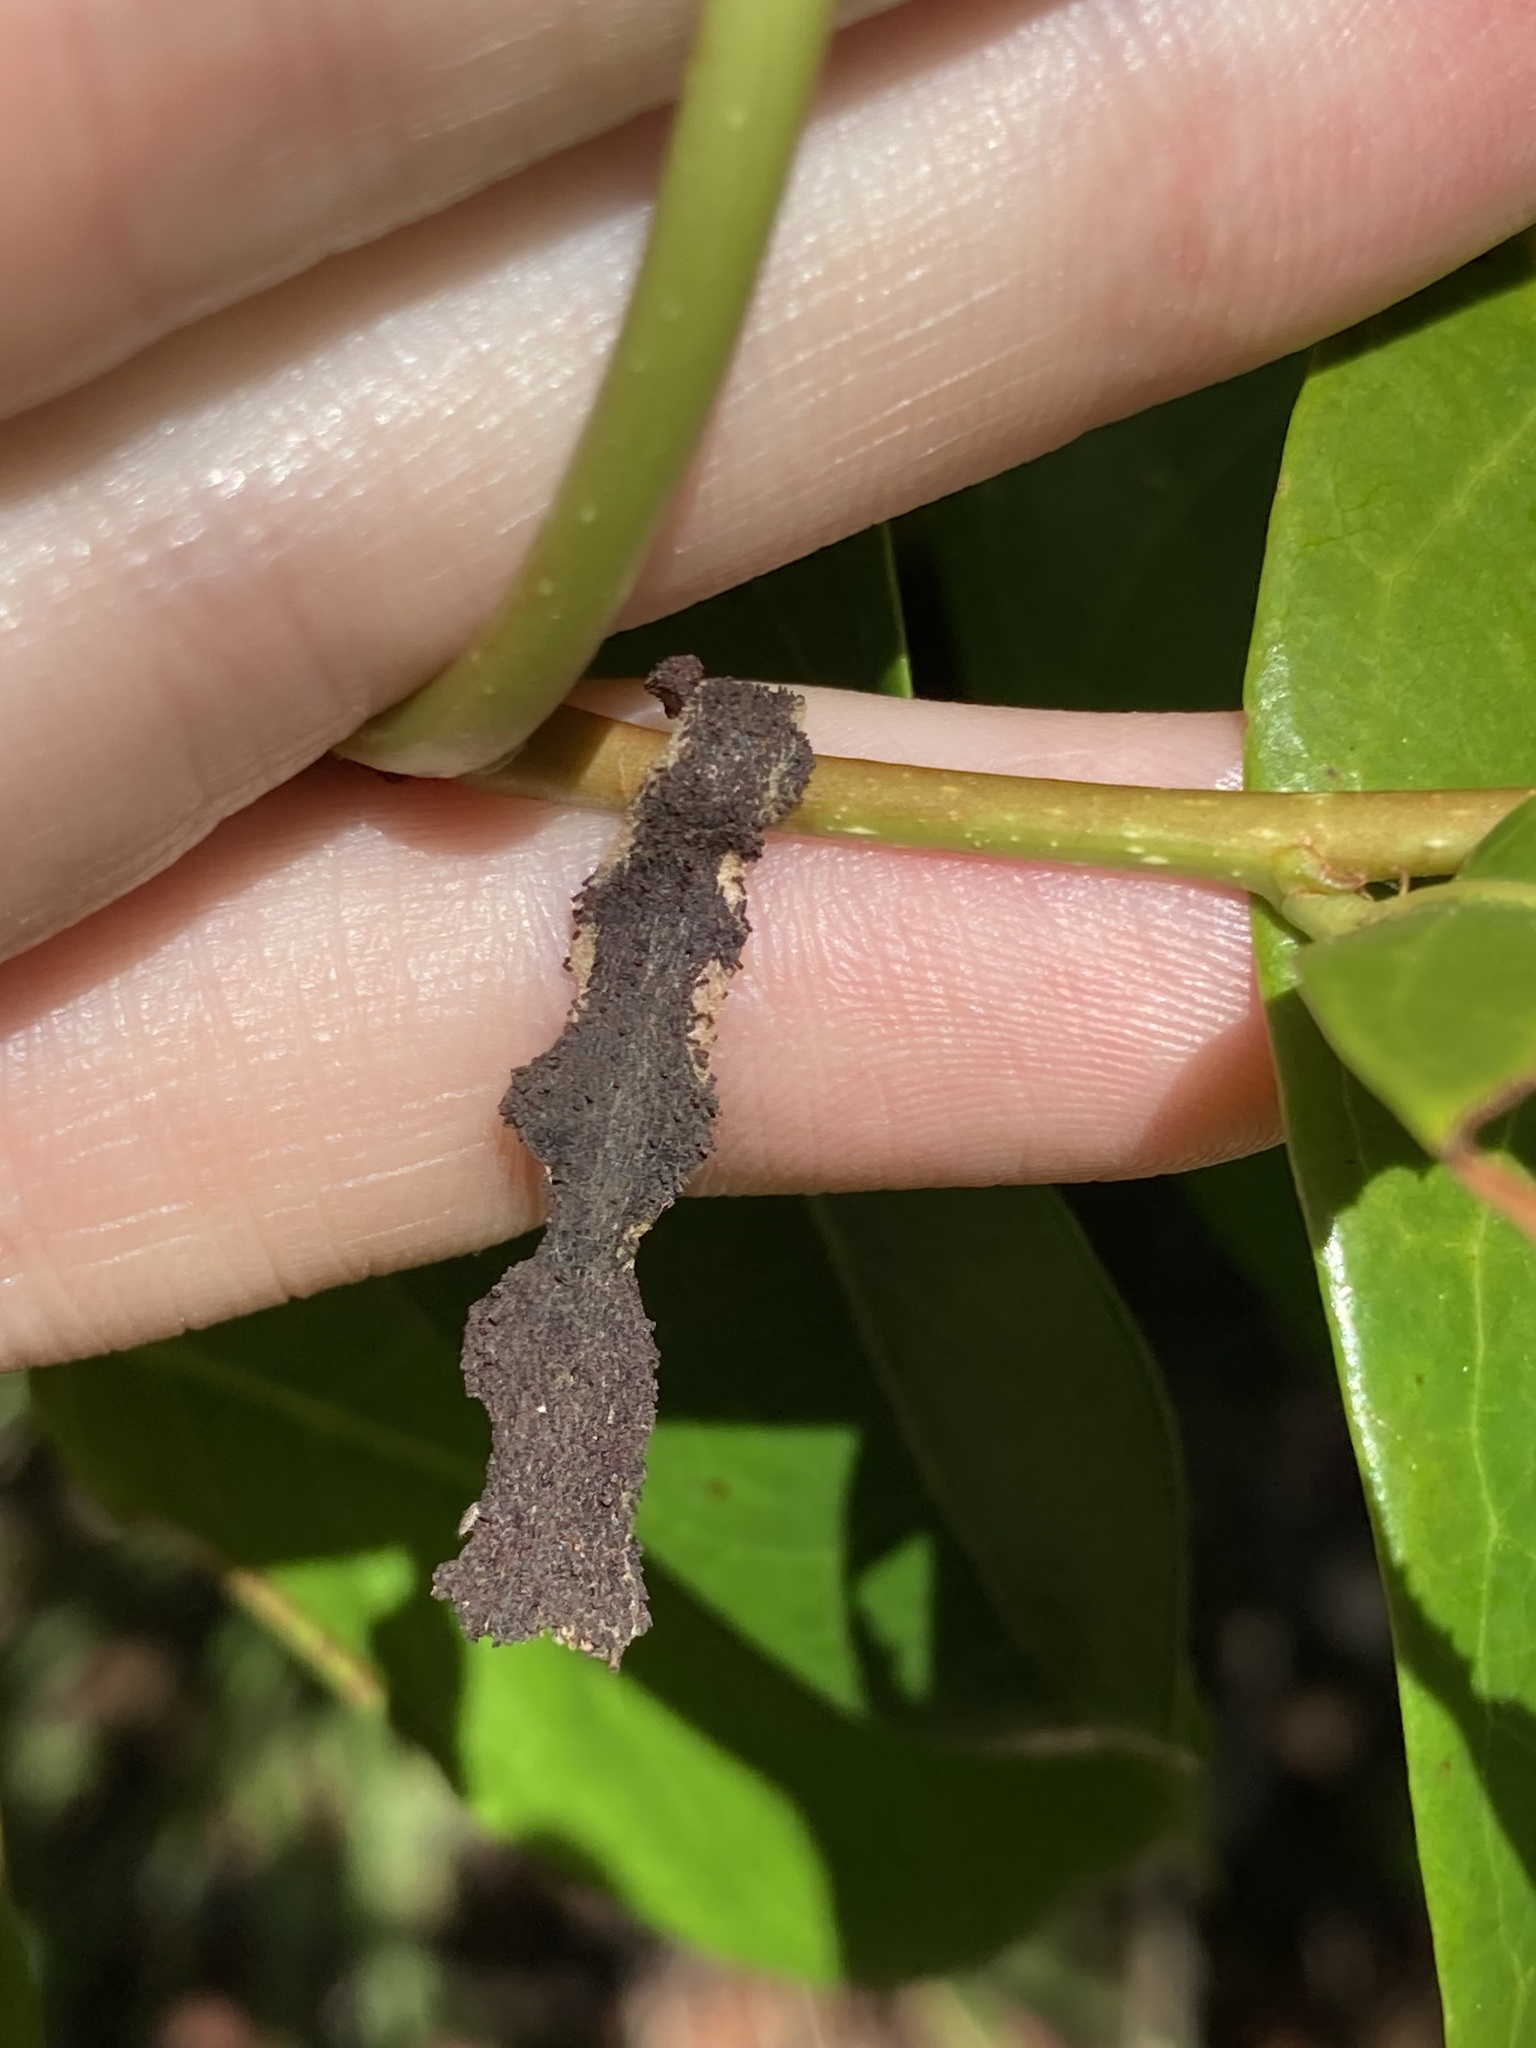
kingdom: Animalia
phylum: Arthropoda
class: Insecta
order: Lepidoptera
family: Pyralidae
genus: Stericta
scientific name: Stericta orchidivora
